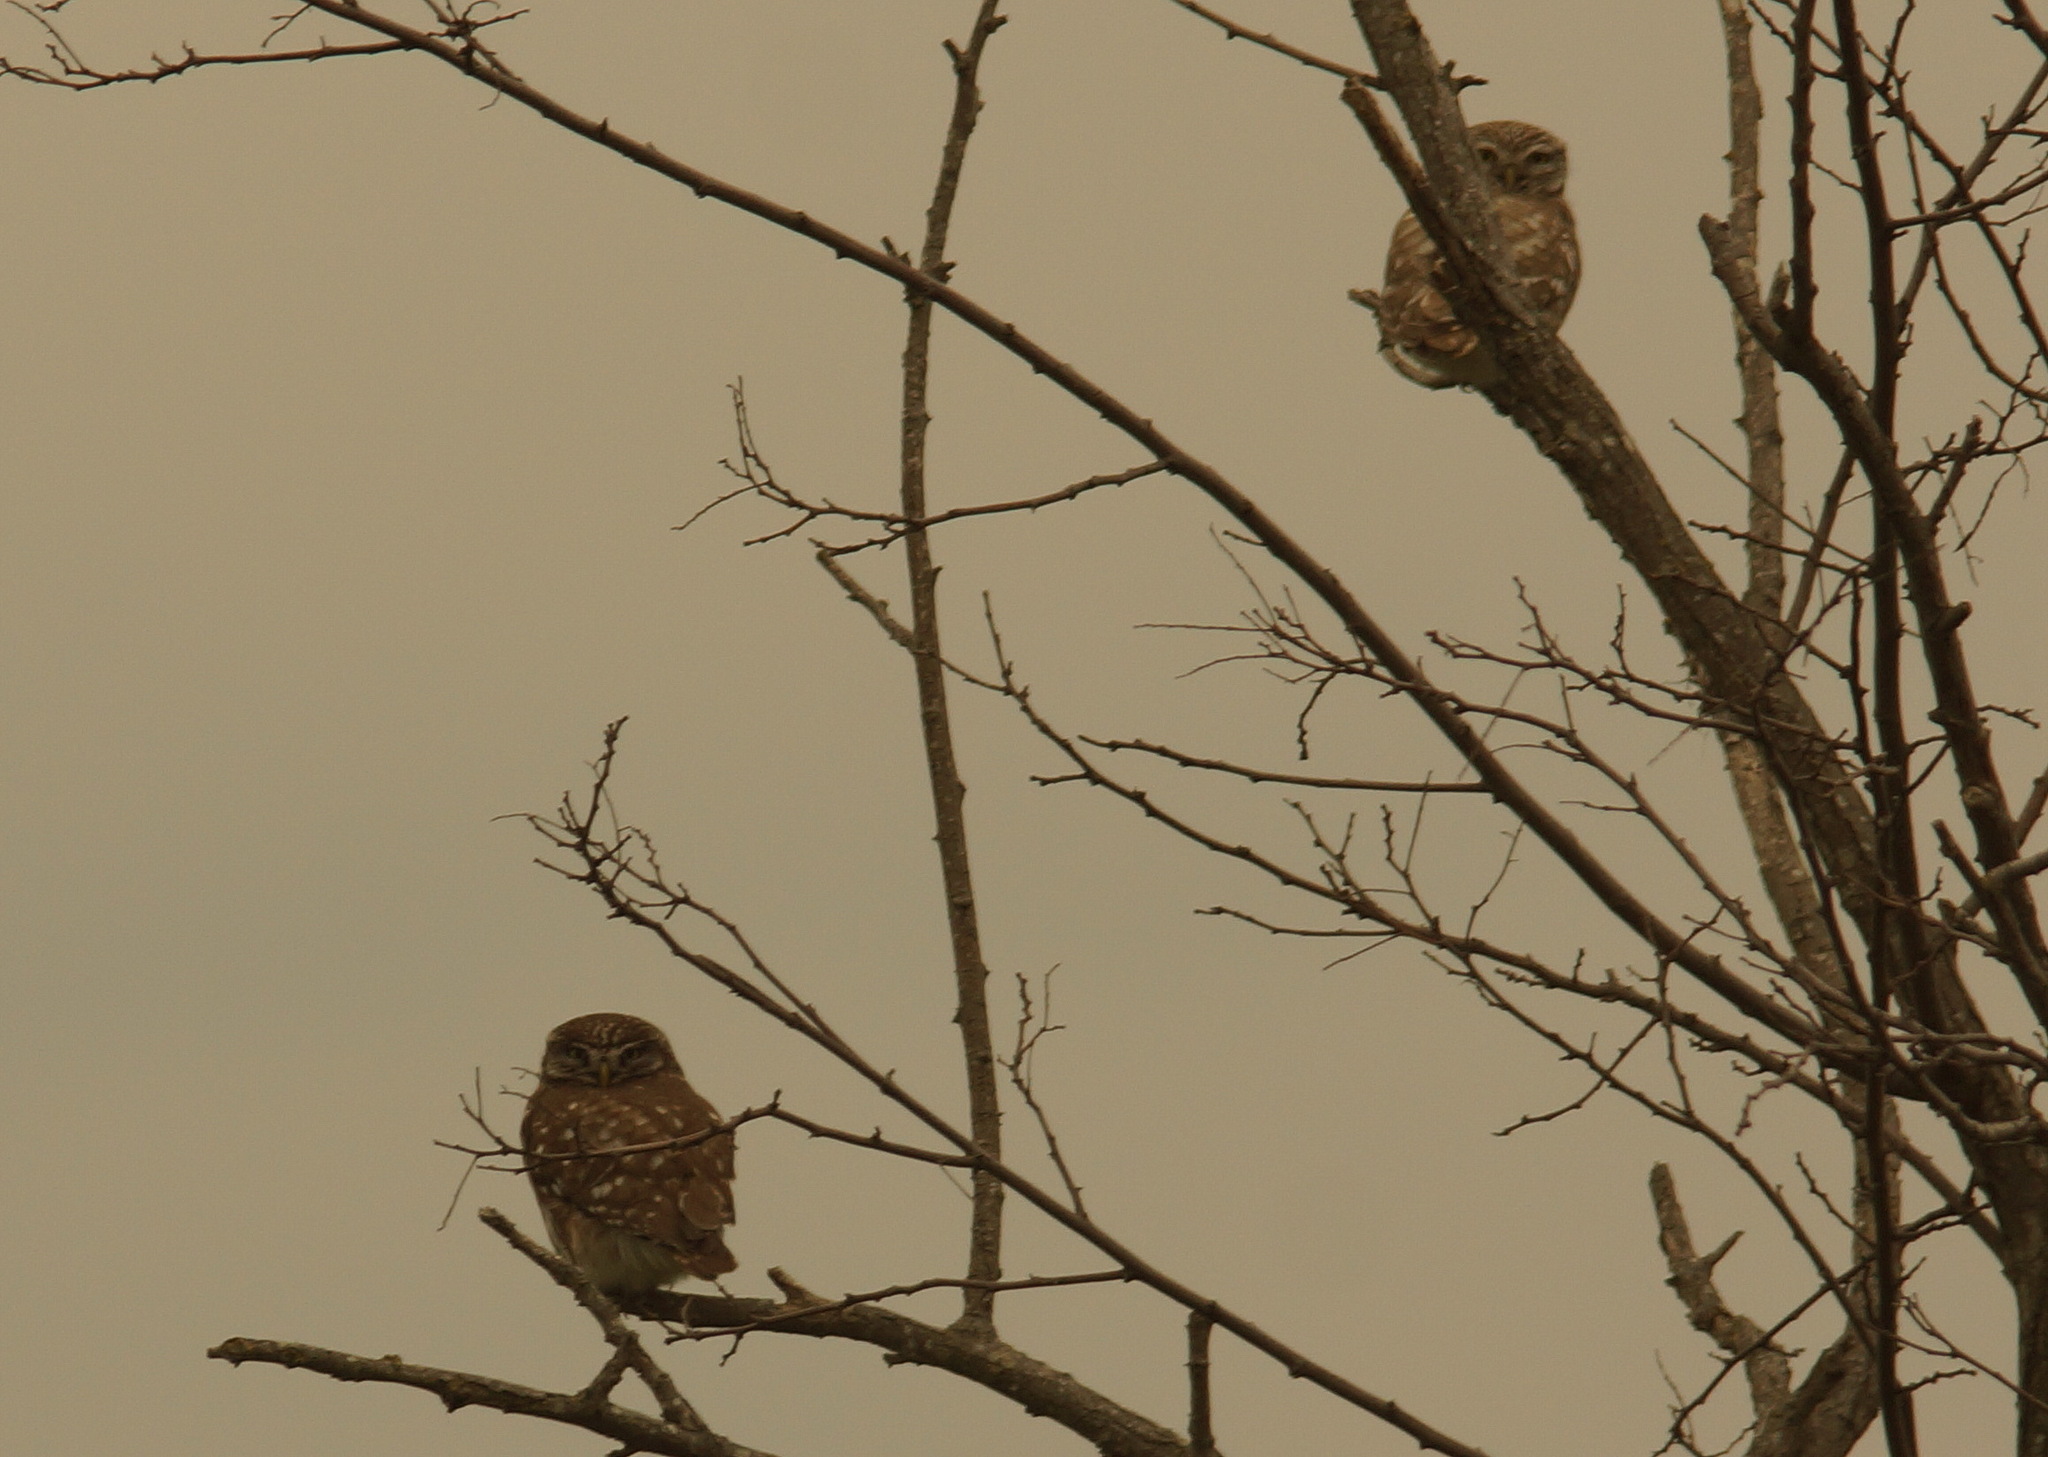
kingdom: Animalia
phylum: Chordata
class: Aves
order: Strigiformes
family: Strigidae
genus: Athene
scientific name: Athene noctua
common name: Little owl
